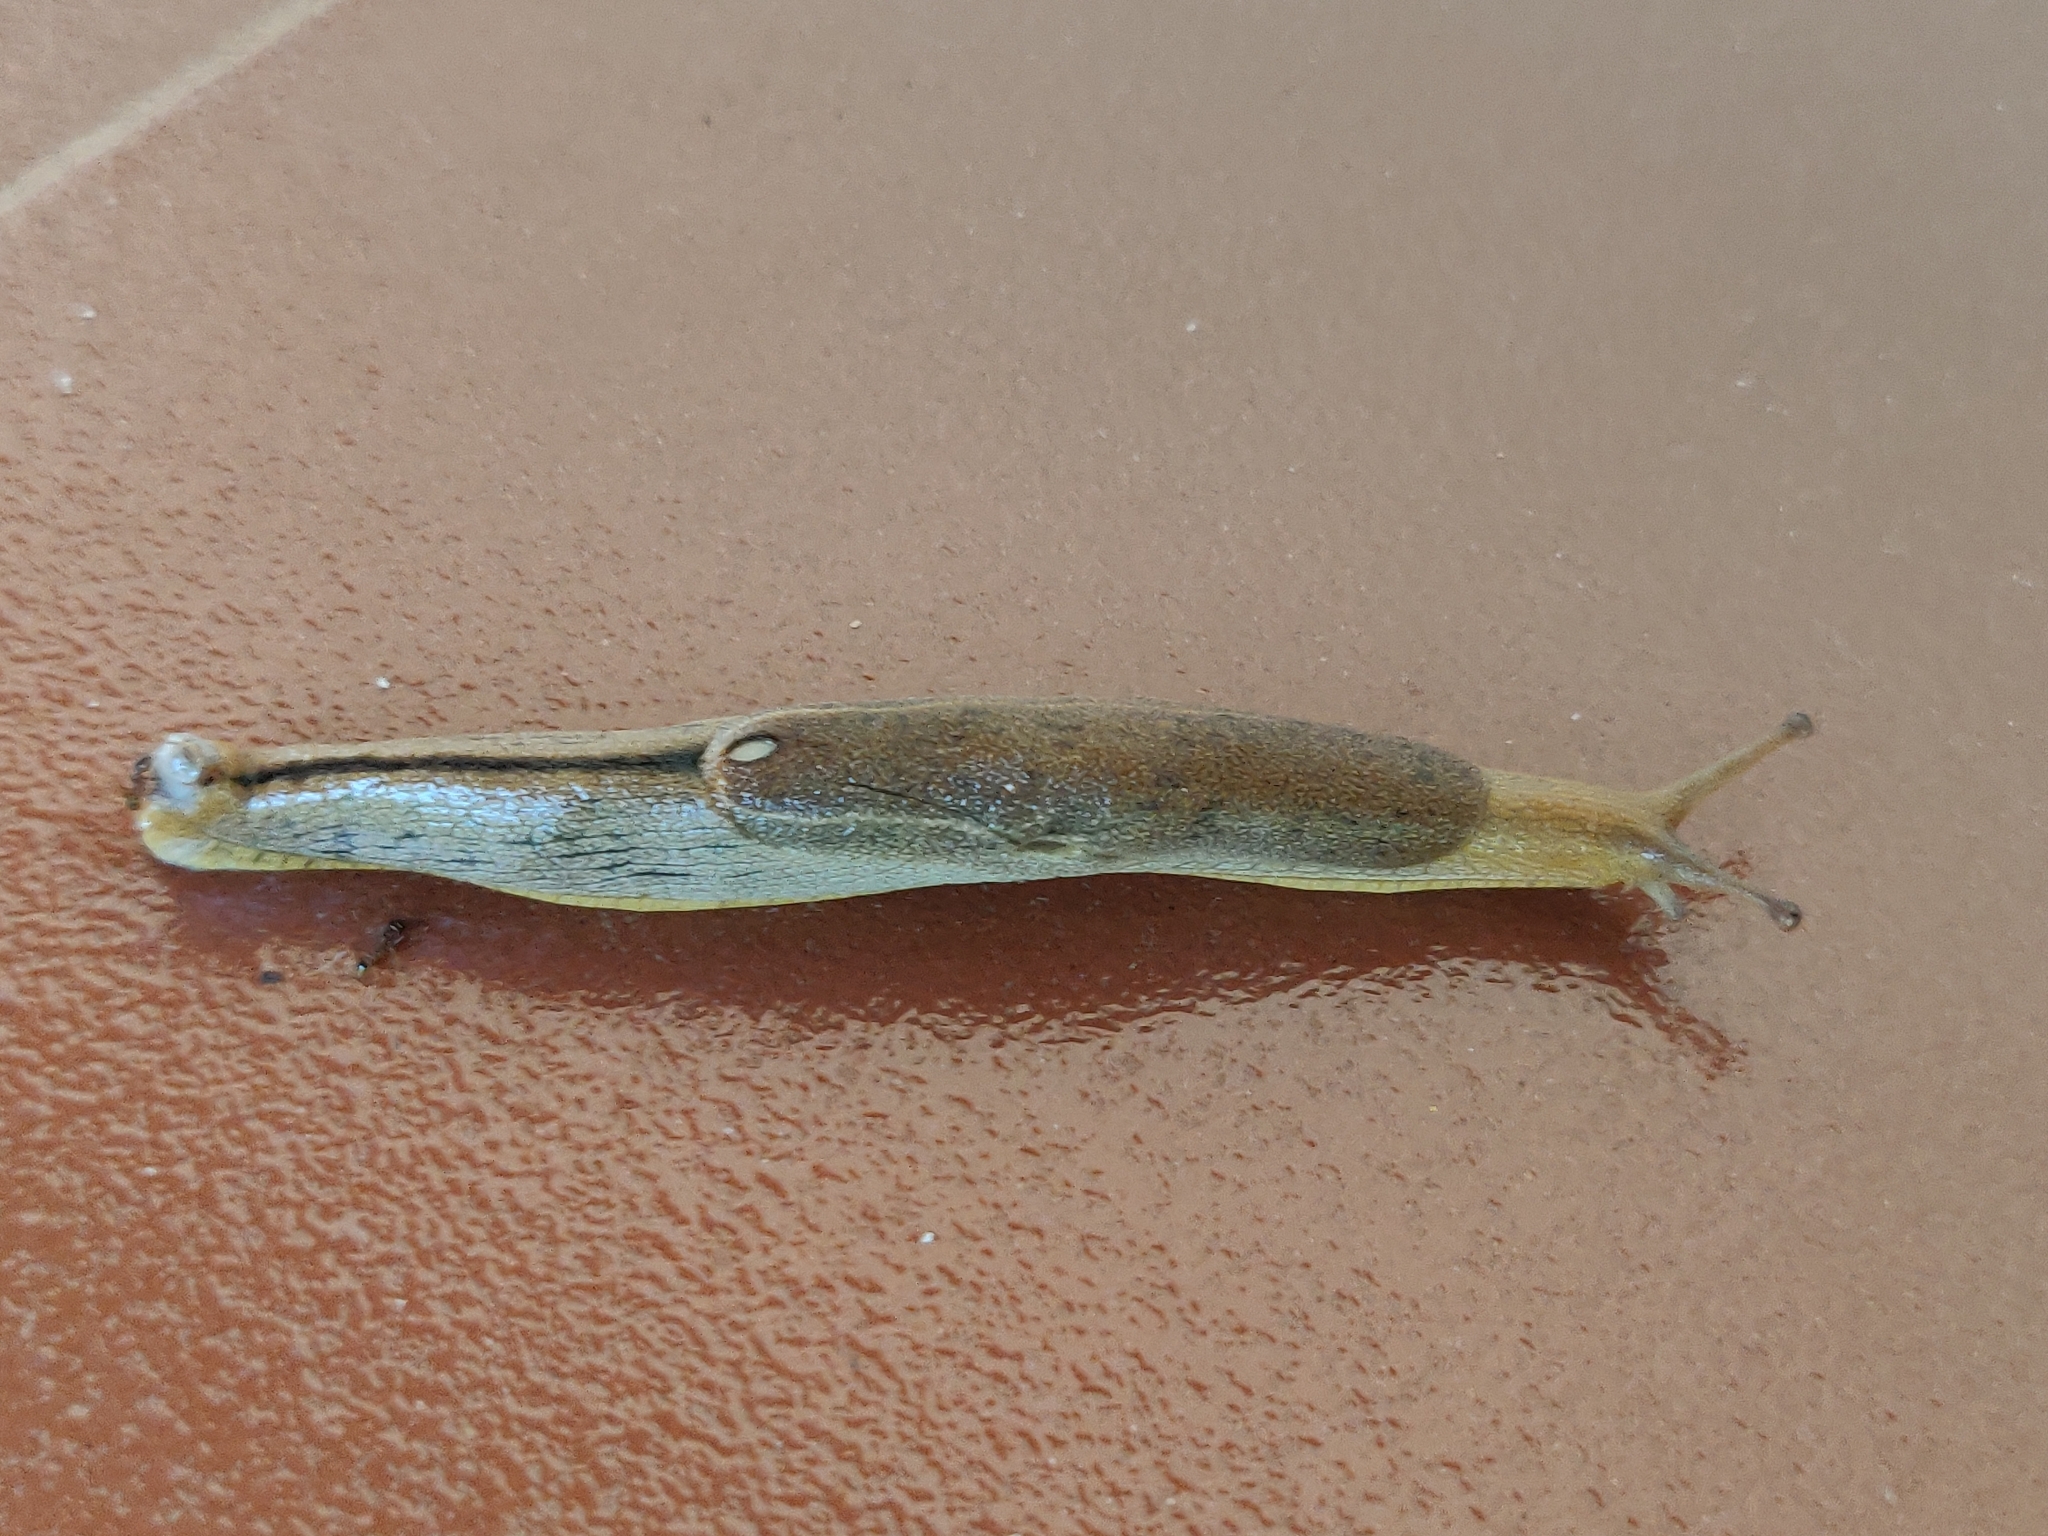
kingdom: Animalia
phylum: Mollusca
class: Gastropoda
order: Stylommatophora
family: Ariophantidae
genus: Mariaella
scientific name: Mariaella dussumieri
